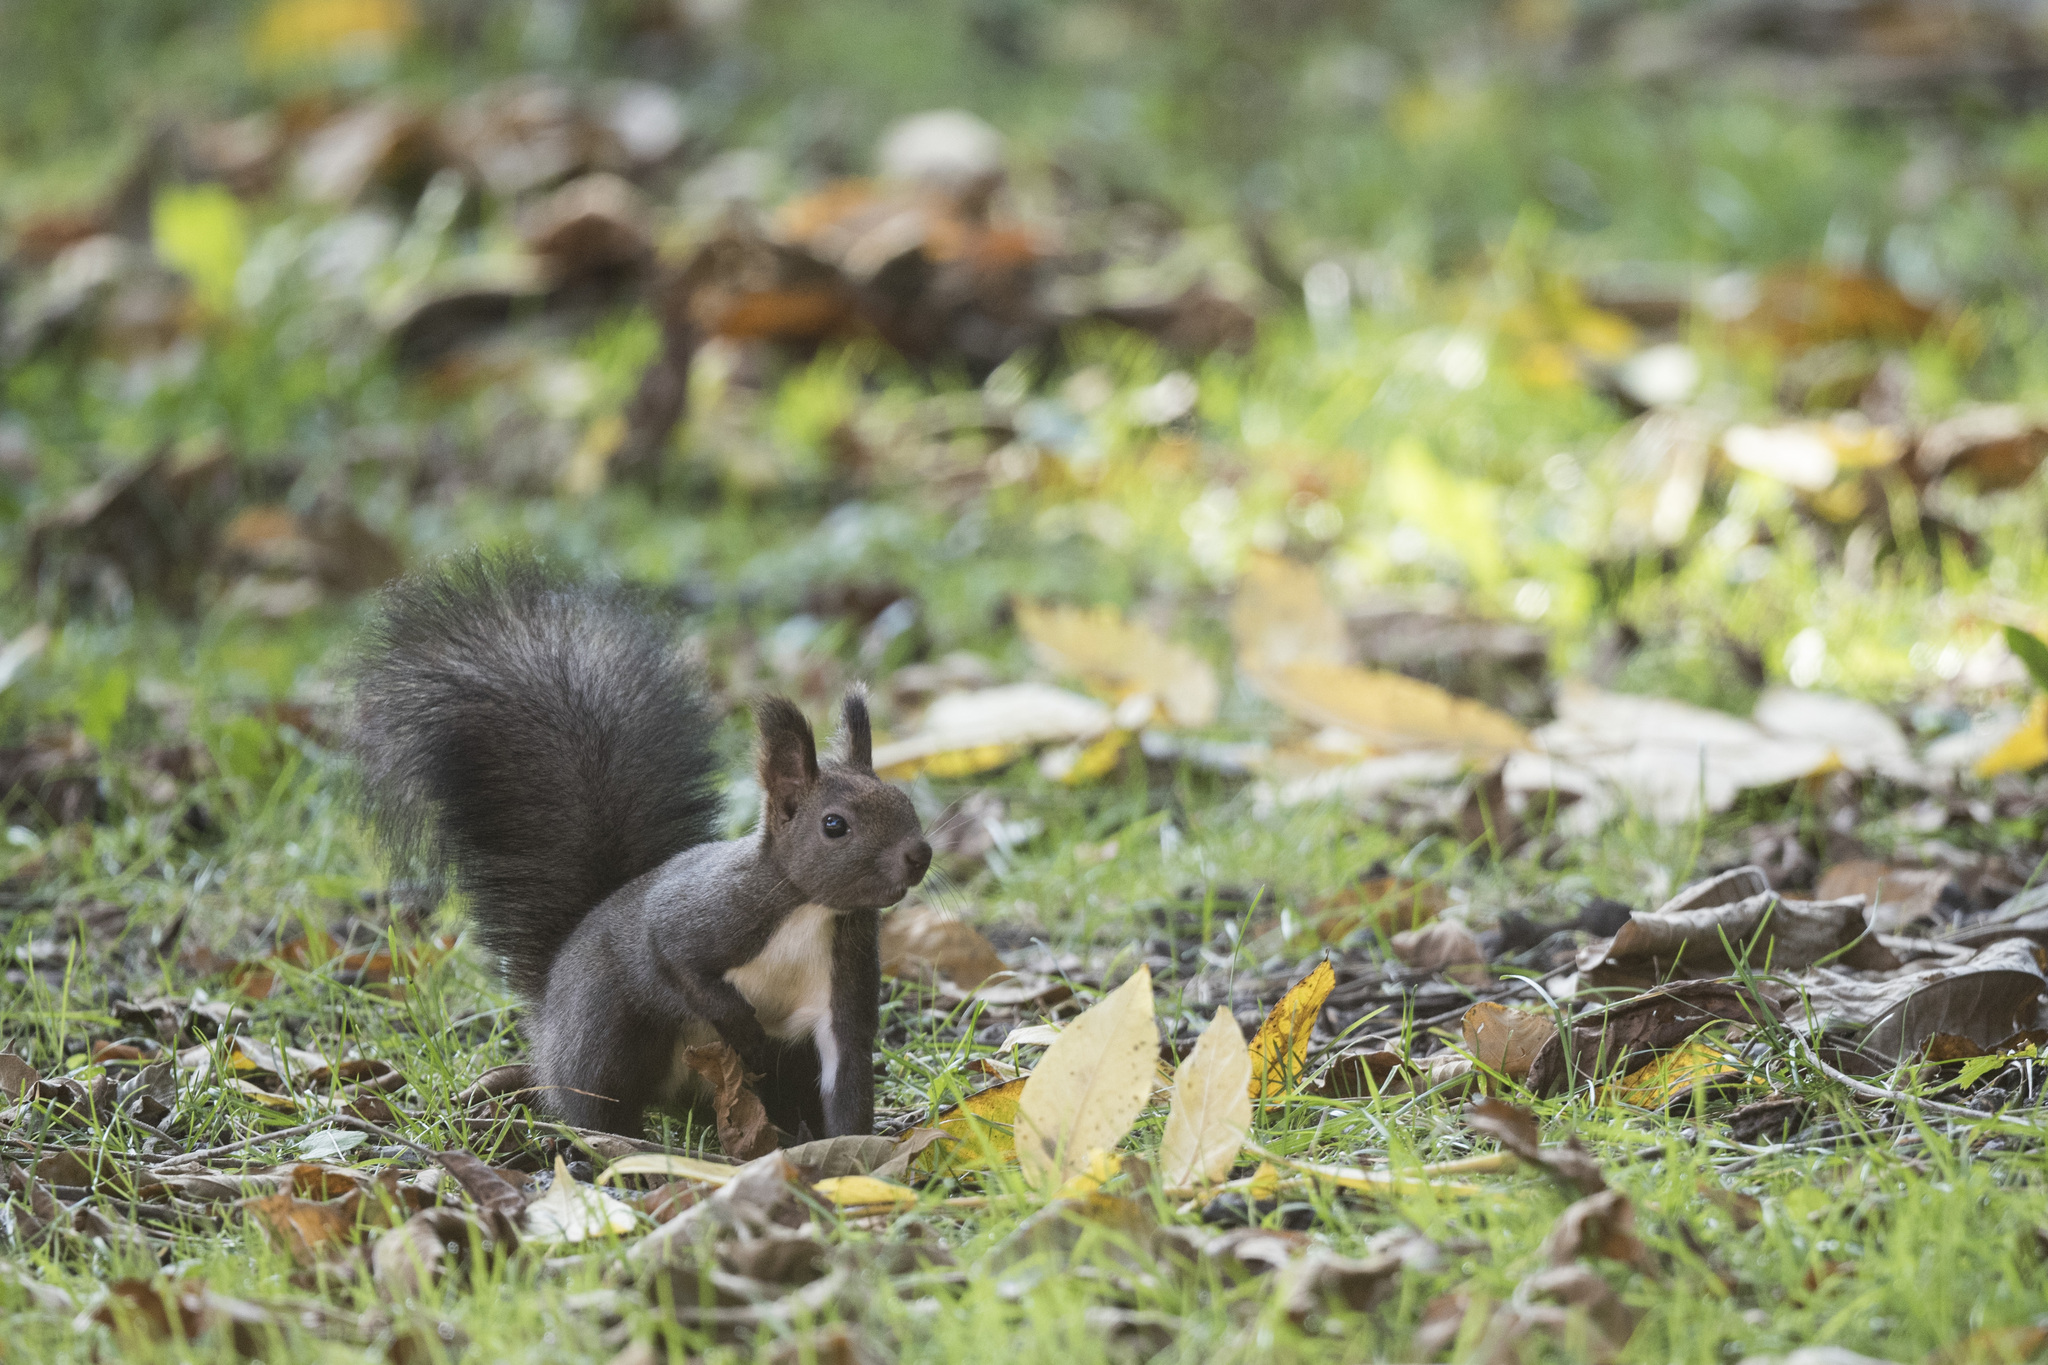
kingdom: Animalia
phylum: Chordata
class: Mammalia
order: Rodentia
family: Sciuridae
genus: Sciurus
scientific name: Sciurus vulgaris
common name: Eurasian red squirrel
